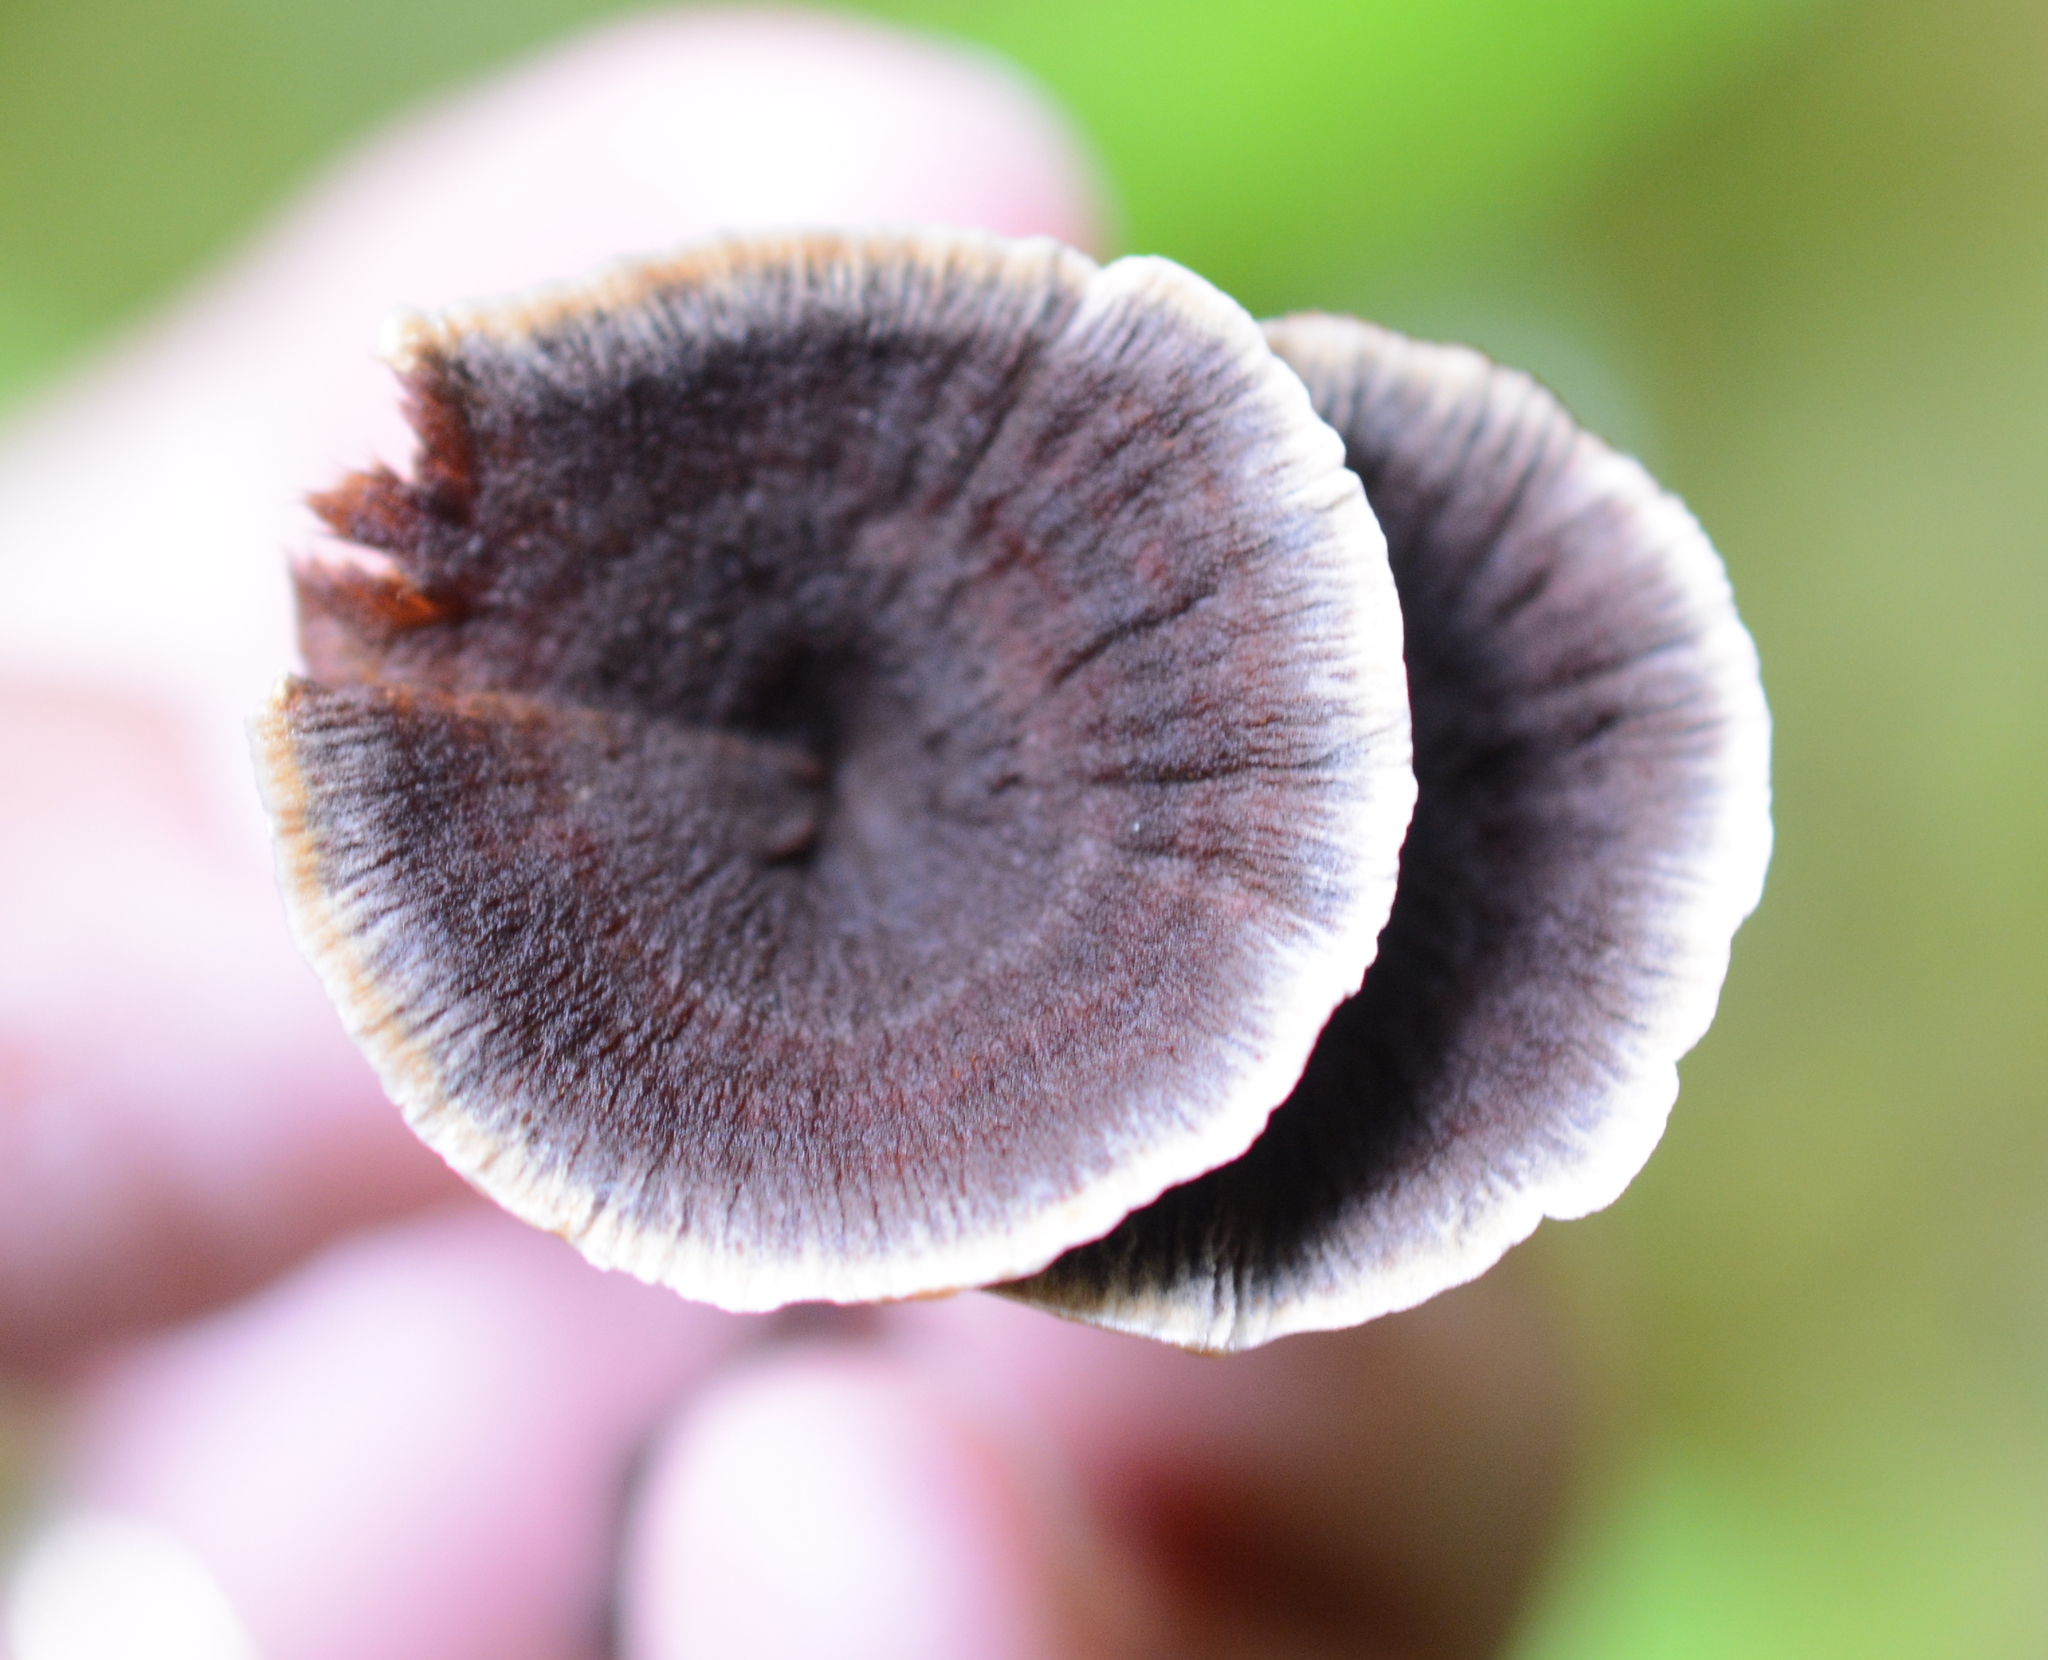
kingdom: Fungi
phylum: Basidiomycota
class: Agaricomycetes
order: Hymenochaetales
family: Hymenochaetaceae
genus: Coltricia
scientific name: Coltricia perennis
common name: Tiger's eye
